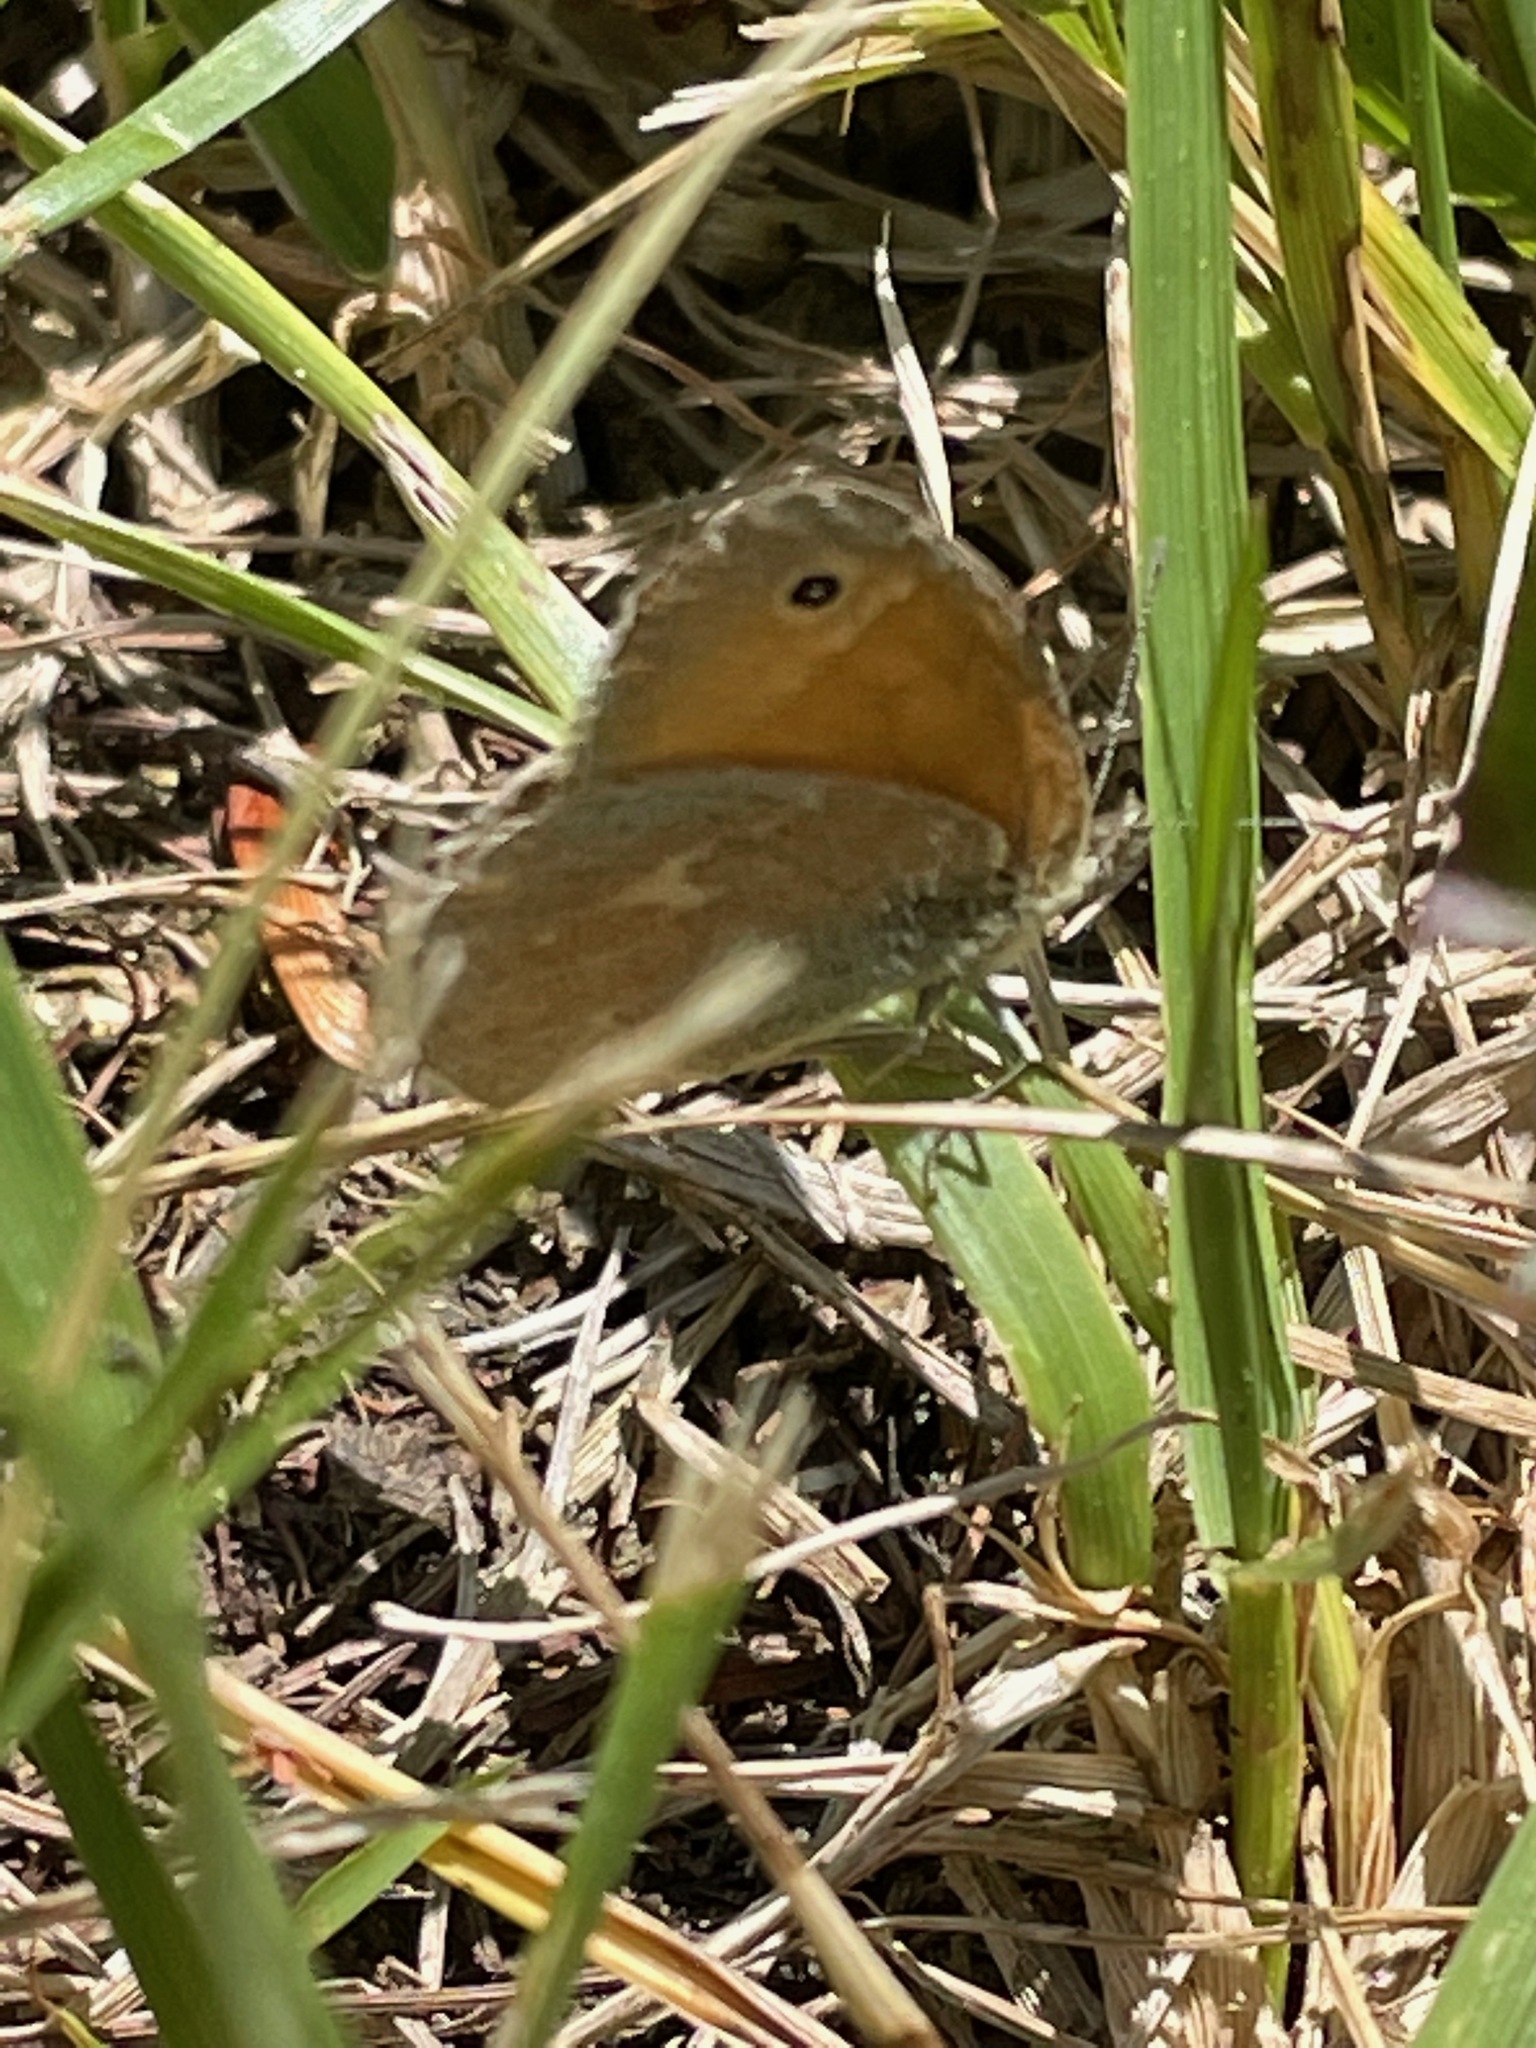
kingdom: Animalia
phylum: Arthropoda
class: Insecta
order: Lepidoptera
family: Nymphalidae
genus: Coenonympha
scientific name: Coenonympha california
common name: Common ringlet
